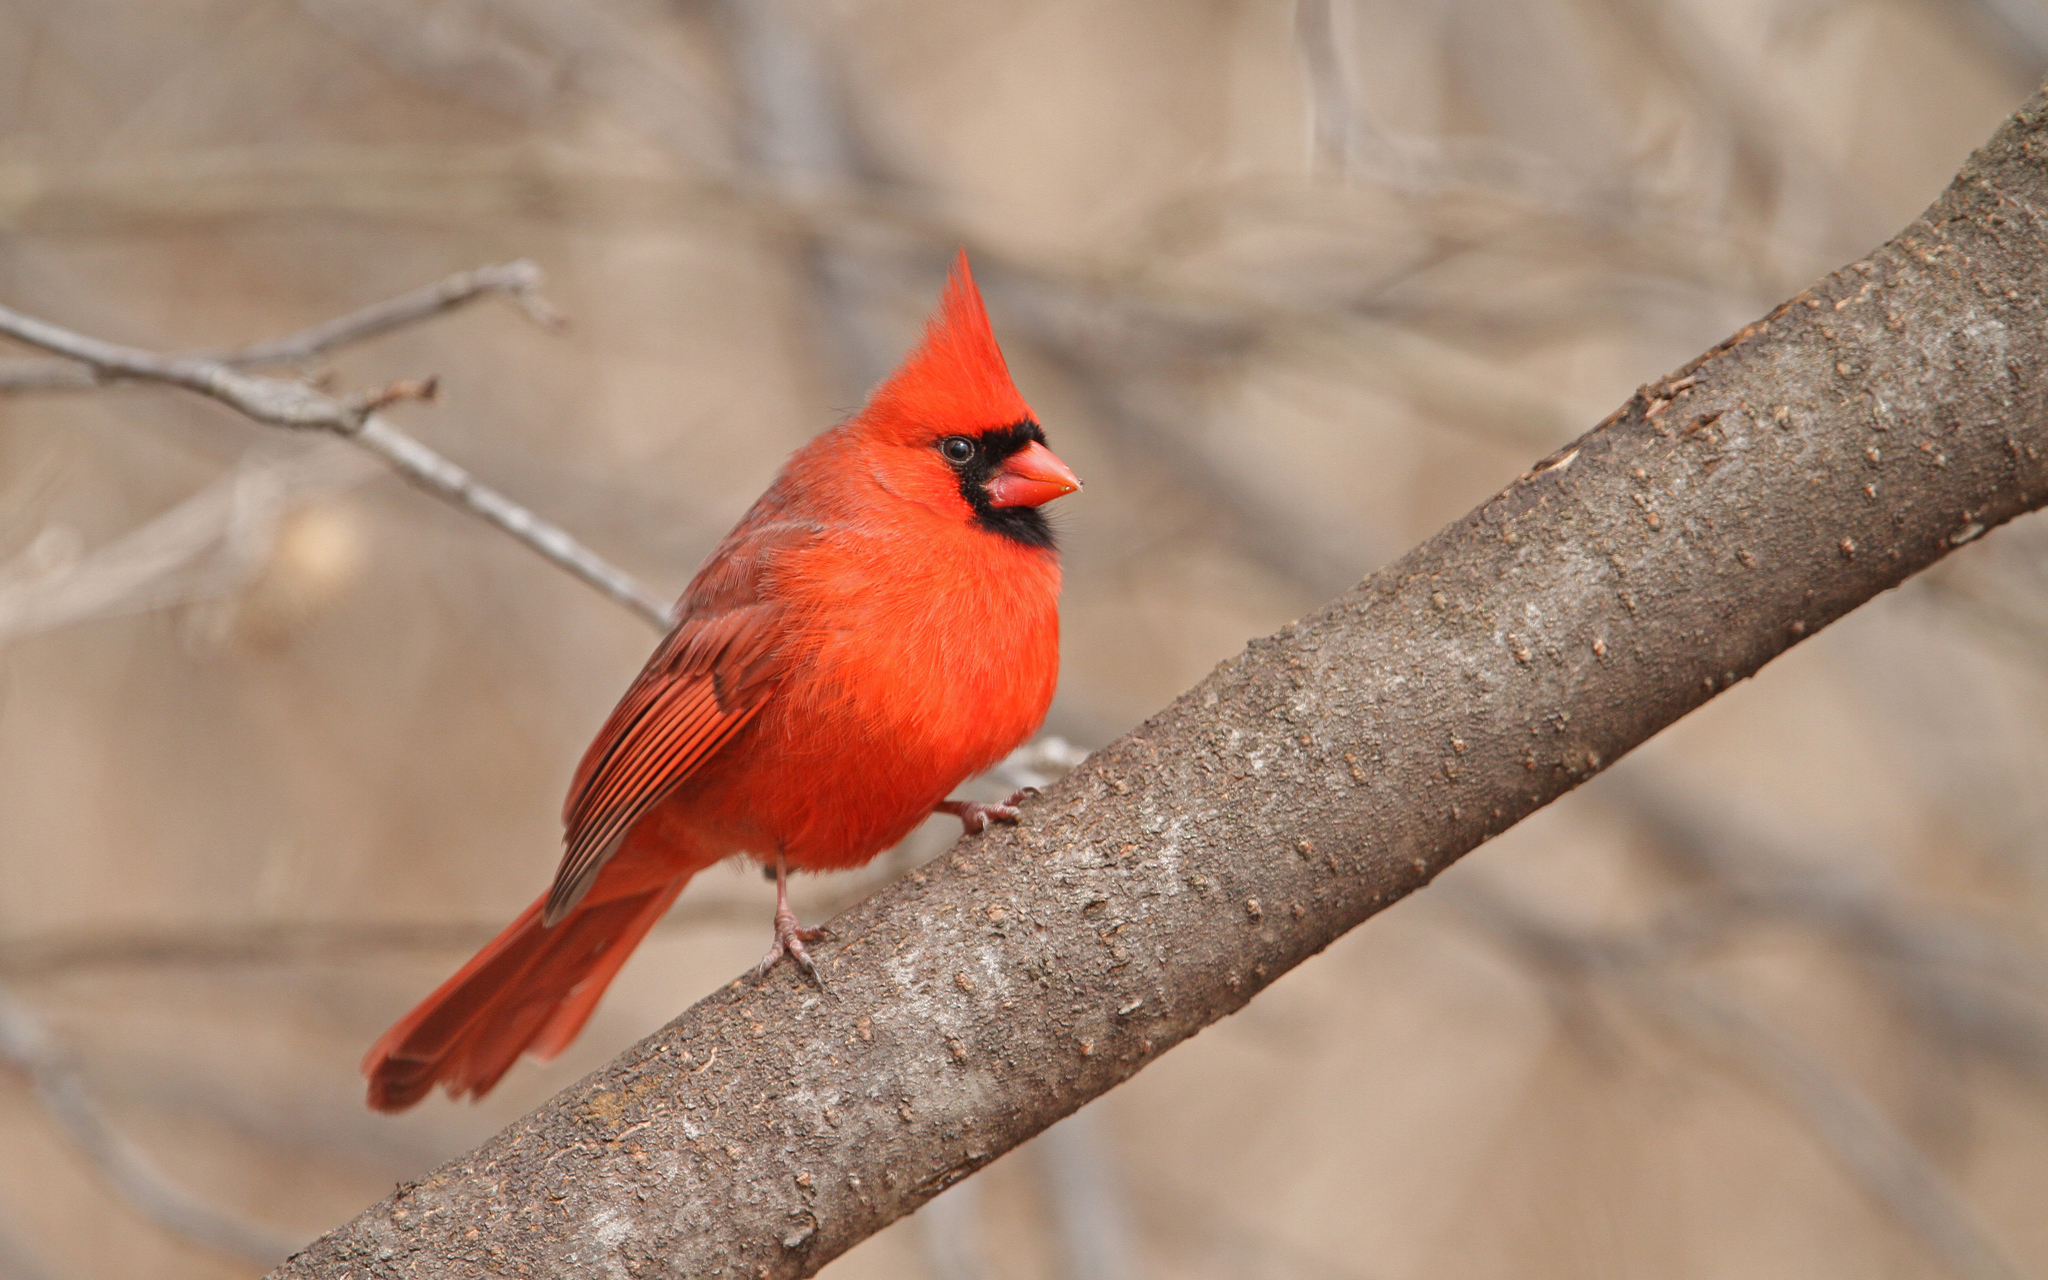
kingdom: Animalia
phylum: Chordata
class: Aves
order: Passeriformes
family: Cardinalidae
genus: Cardinalis
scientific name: Cardinalis cardinalis
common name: Northern cardinal
